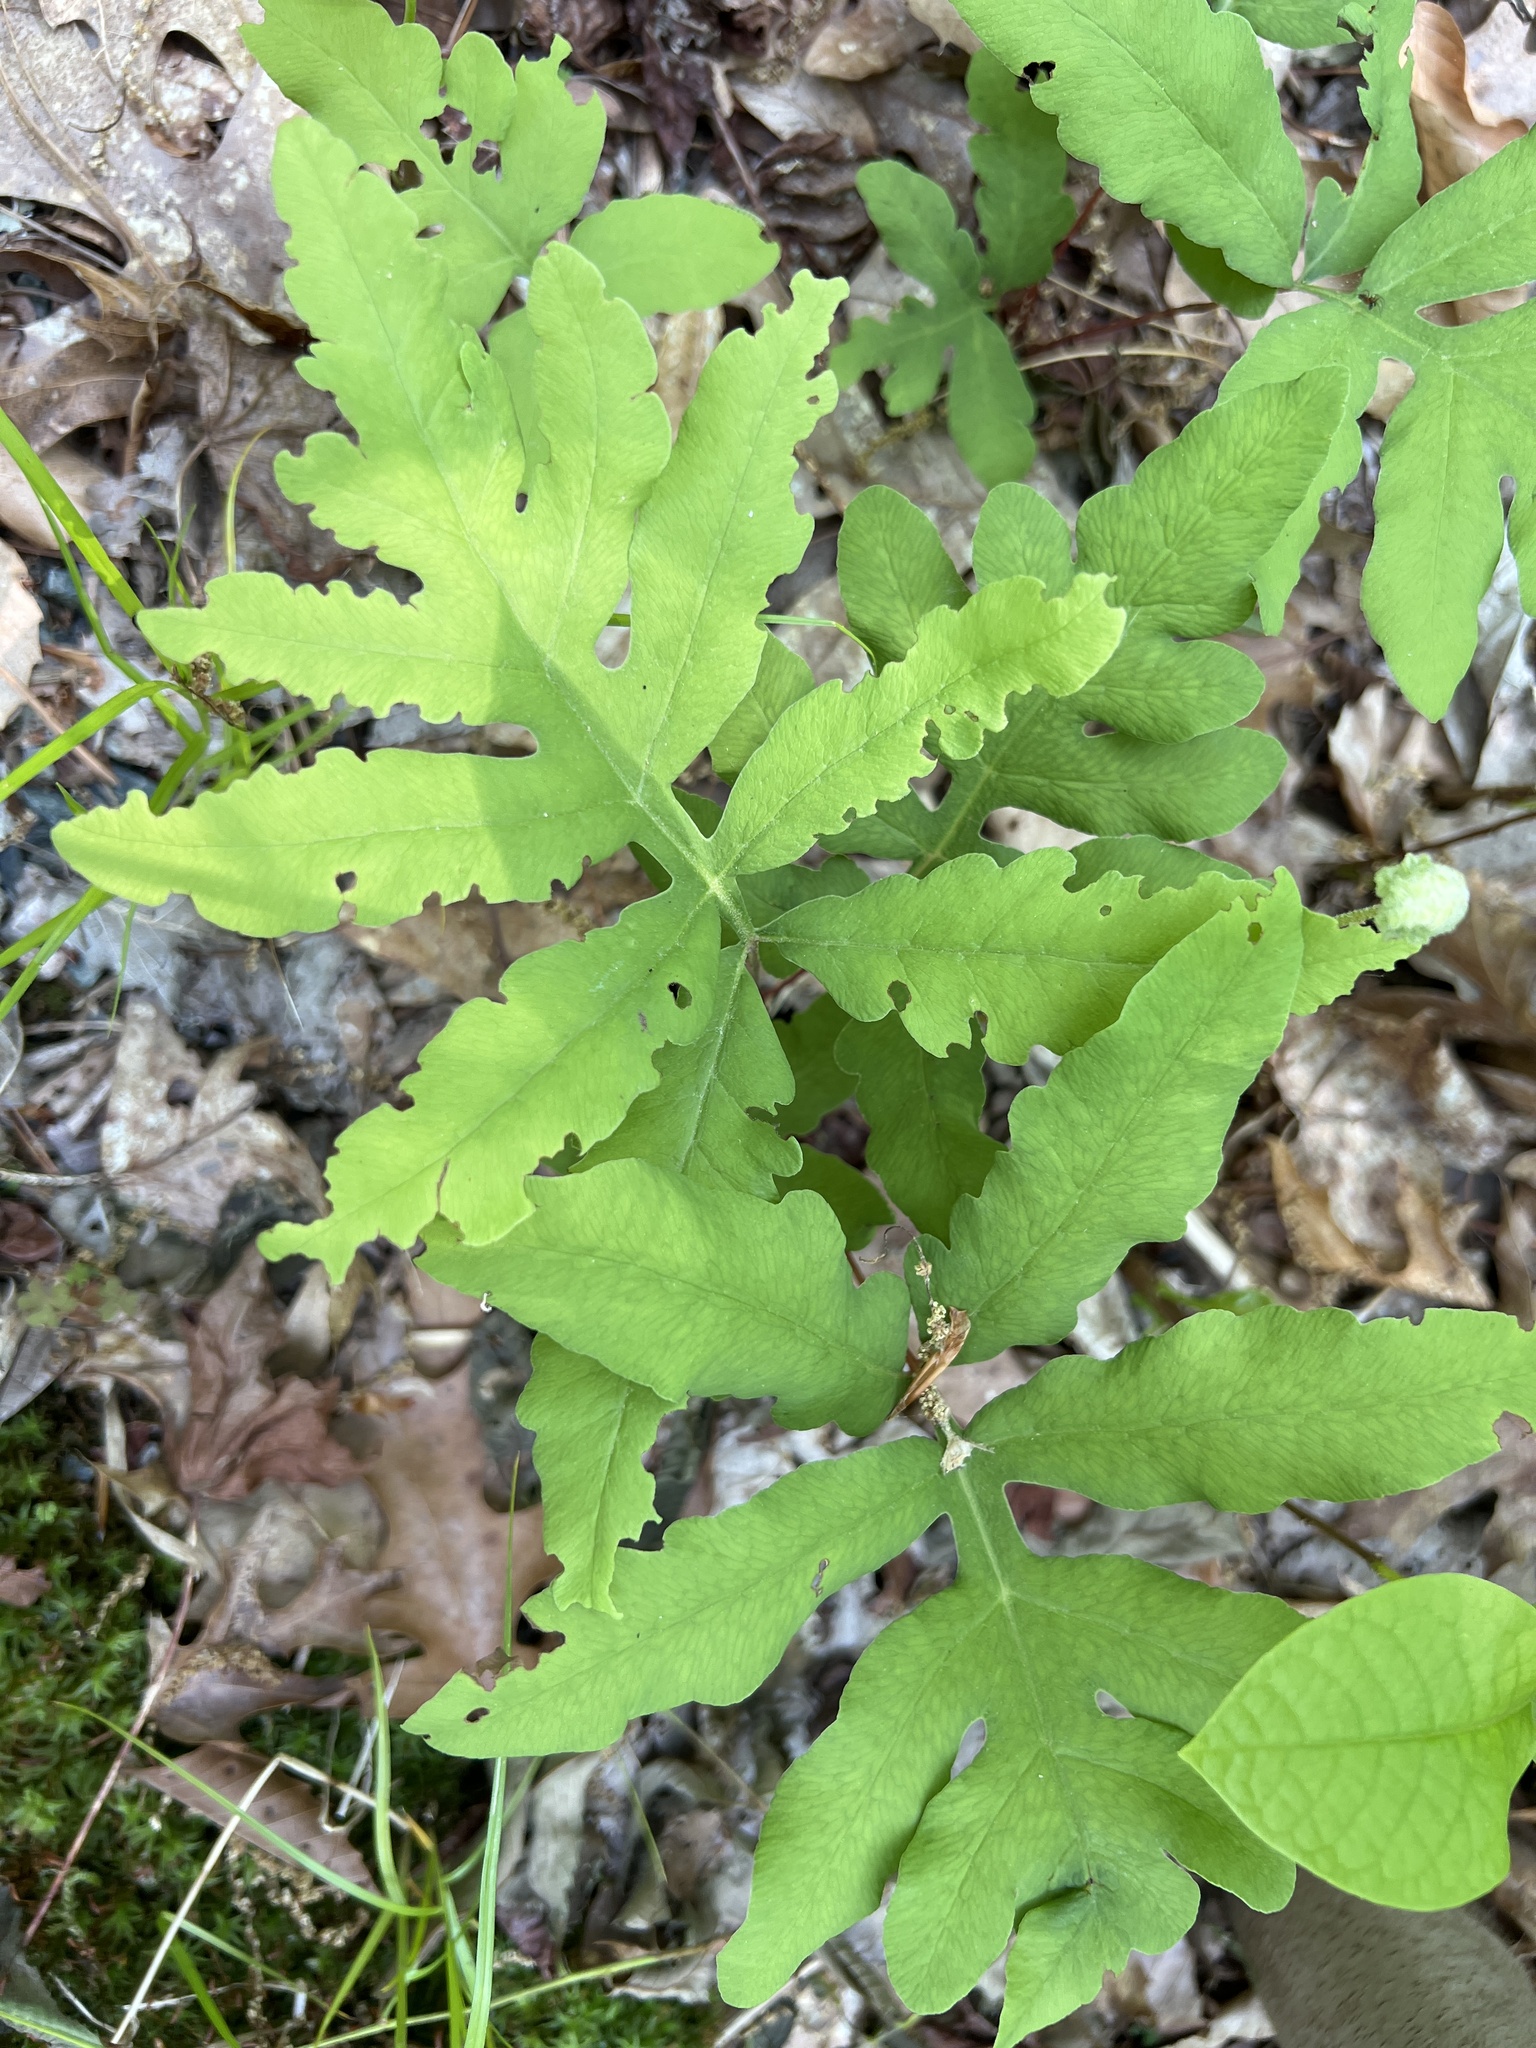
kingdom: Plantae
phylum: Tracheophyta
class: Polypodiopsida
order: Polypodiales
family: Onocleaceae
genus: Onoclea
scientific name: Onoclea sensibilis
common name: Sensitive fern
